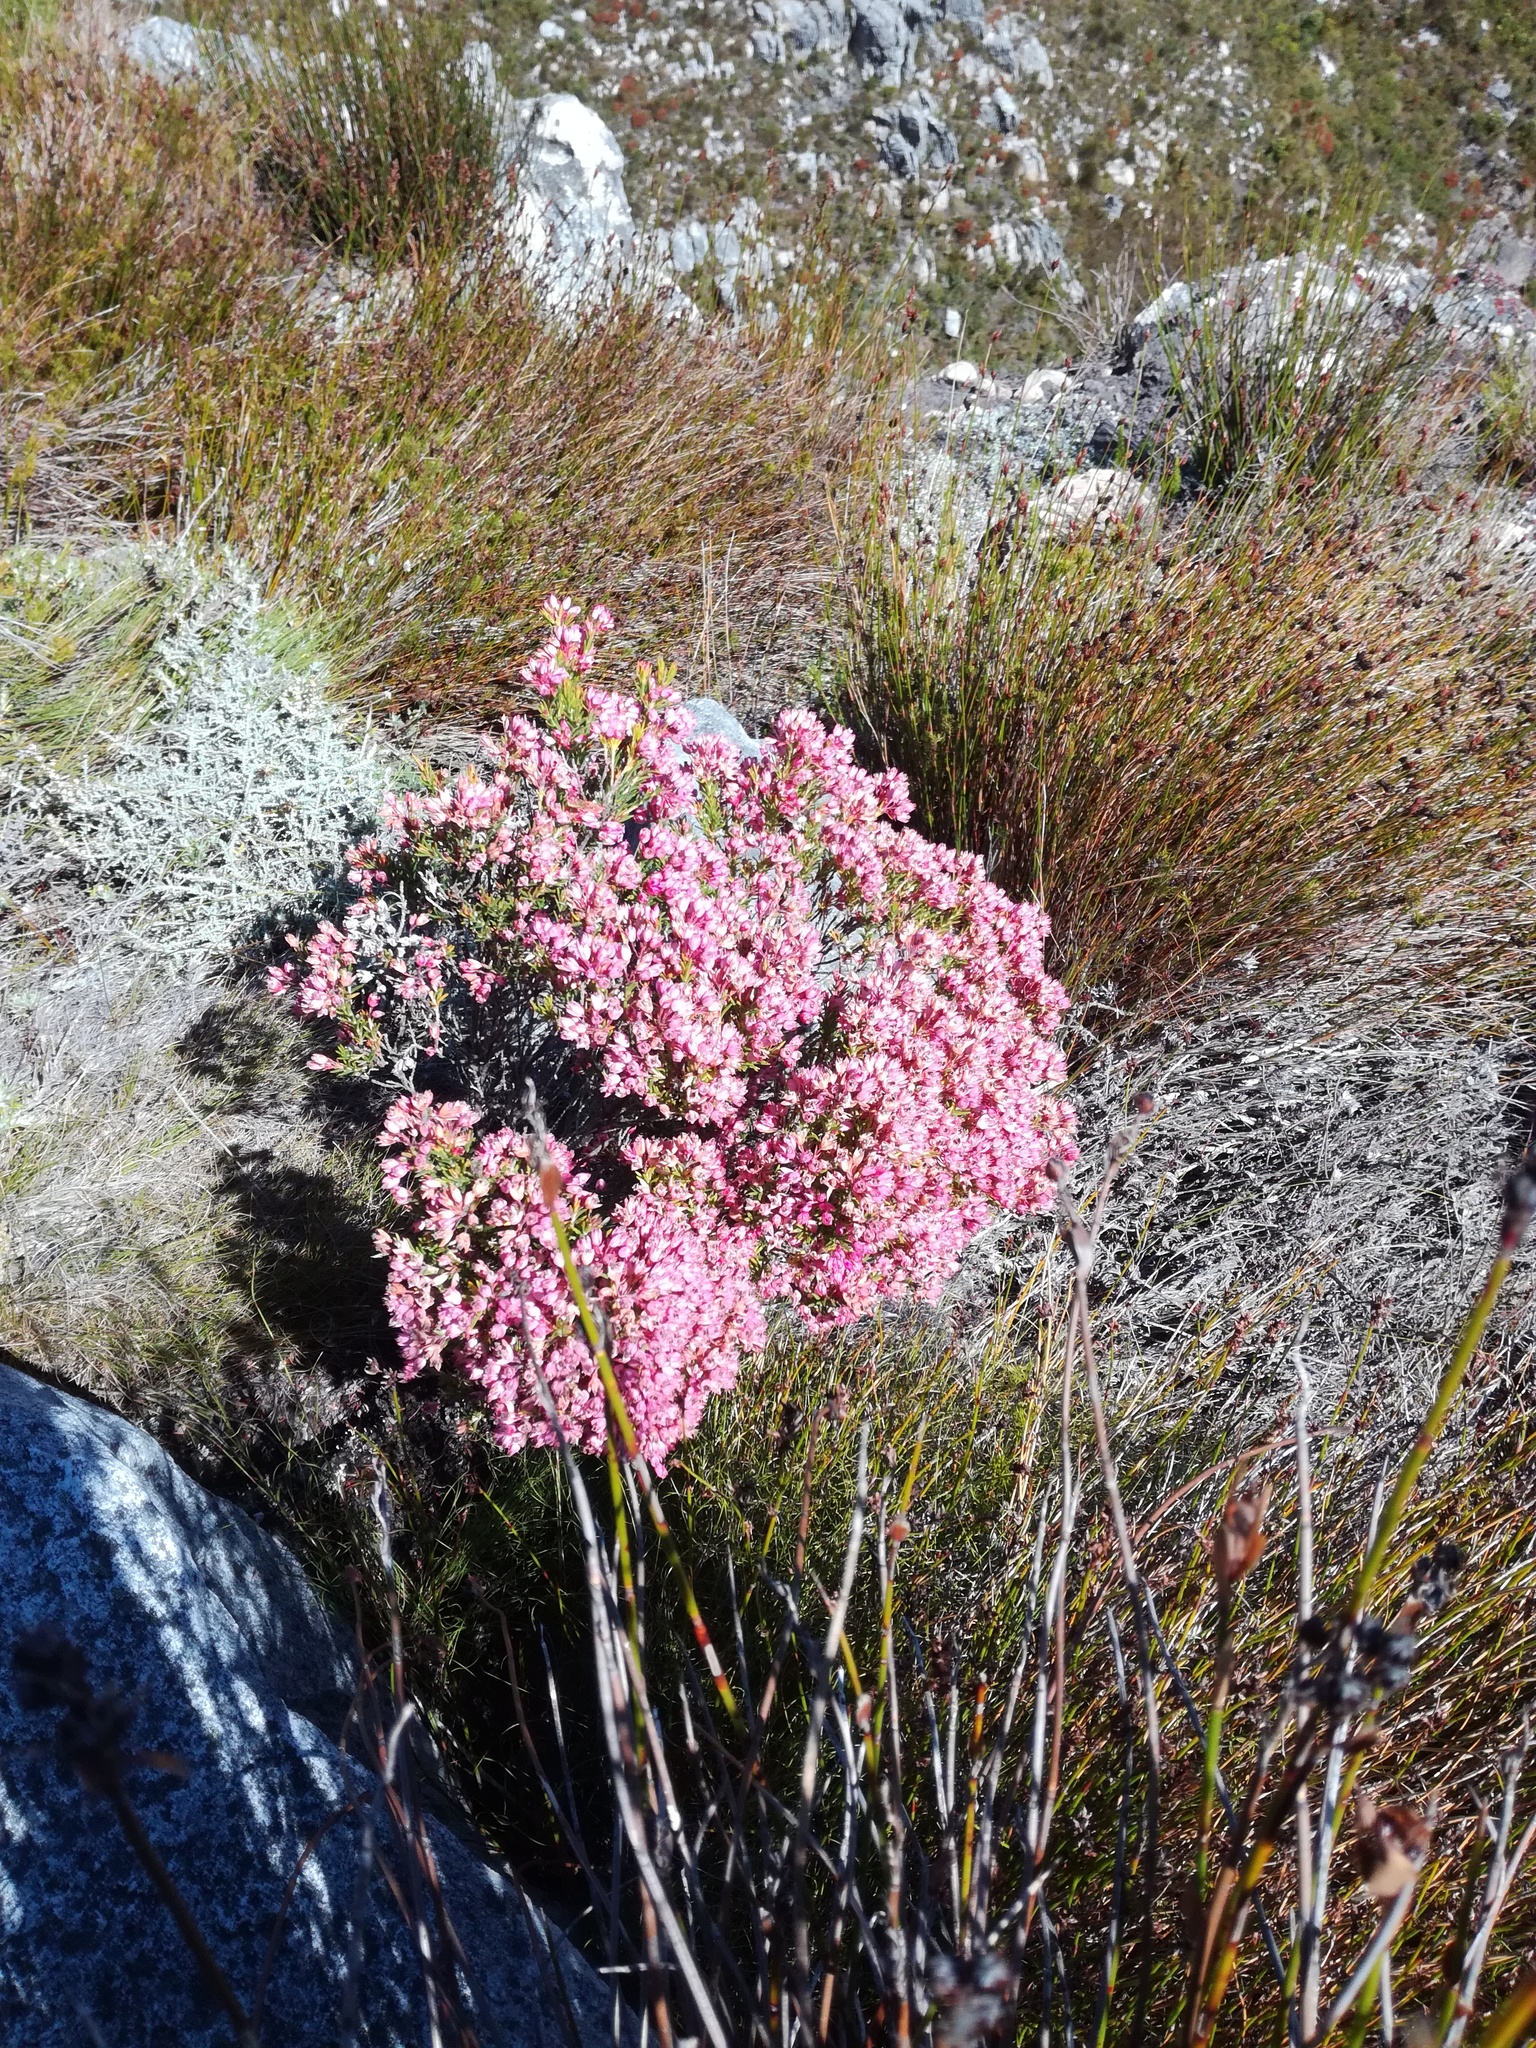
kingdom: Plantae
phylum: Tracheophyta
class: Magnoliopsida
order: Ericales
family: Ericaceae
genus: Erica
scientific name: Erica taxifolia
